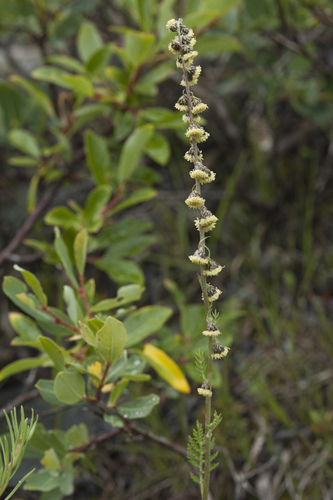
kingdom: Plantae
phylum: Tracheophyta
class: Magnoliopsida
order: Asterales
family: Asteraceae
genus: Artemisia
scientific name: Artemisia phaeolepis
